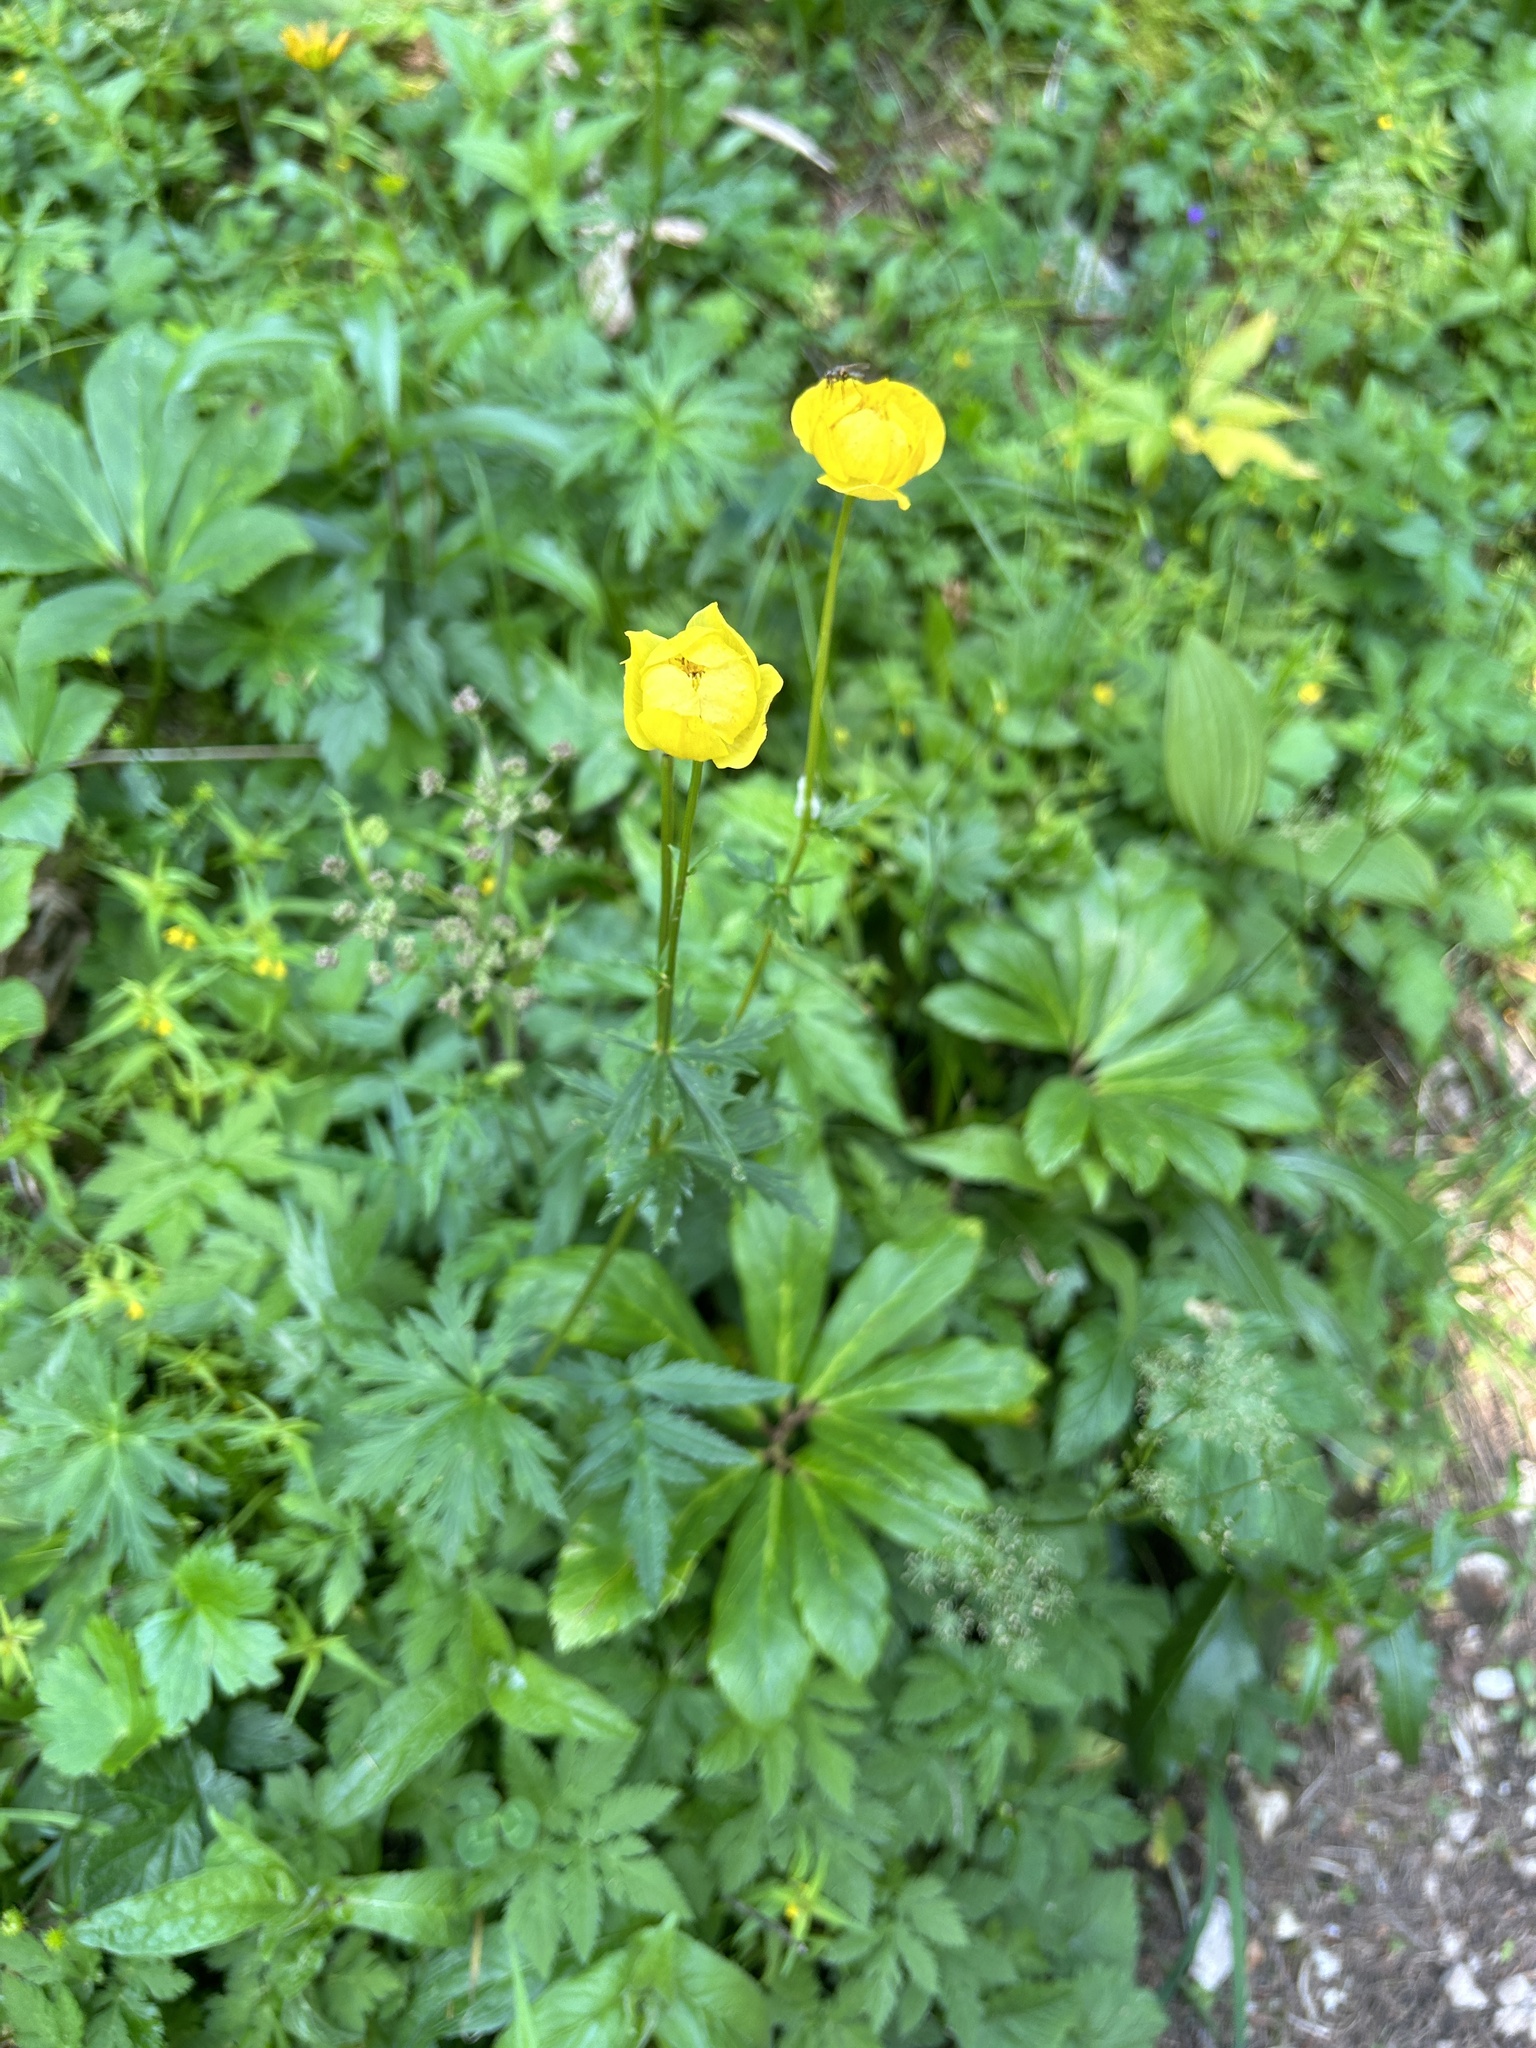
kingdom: Plantae
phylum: Tracheophyta
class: Magnoliopsida
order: Ranunculales
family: Ranunculaceae
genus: Trollius
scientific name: Trollius europaeus
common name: European globeflower
